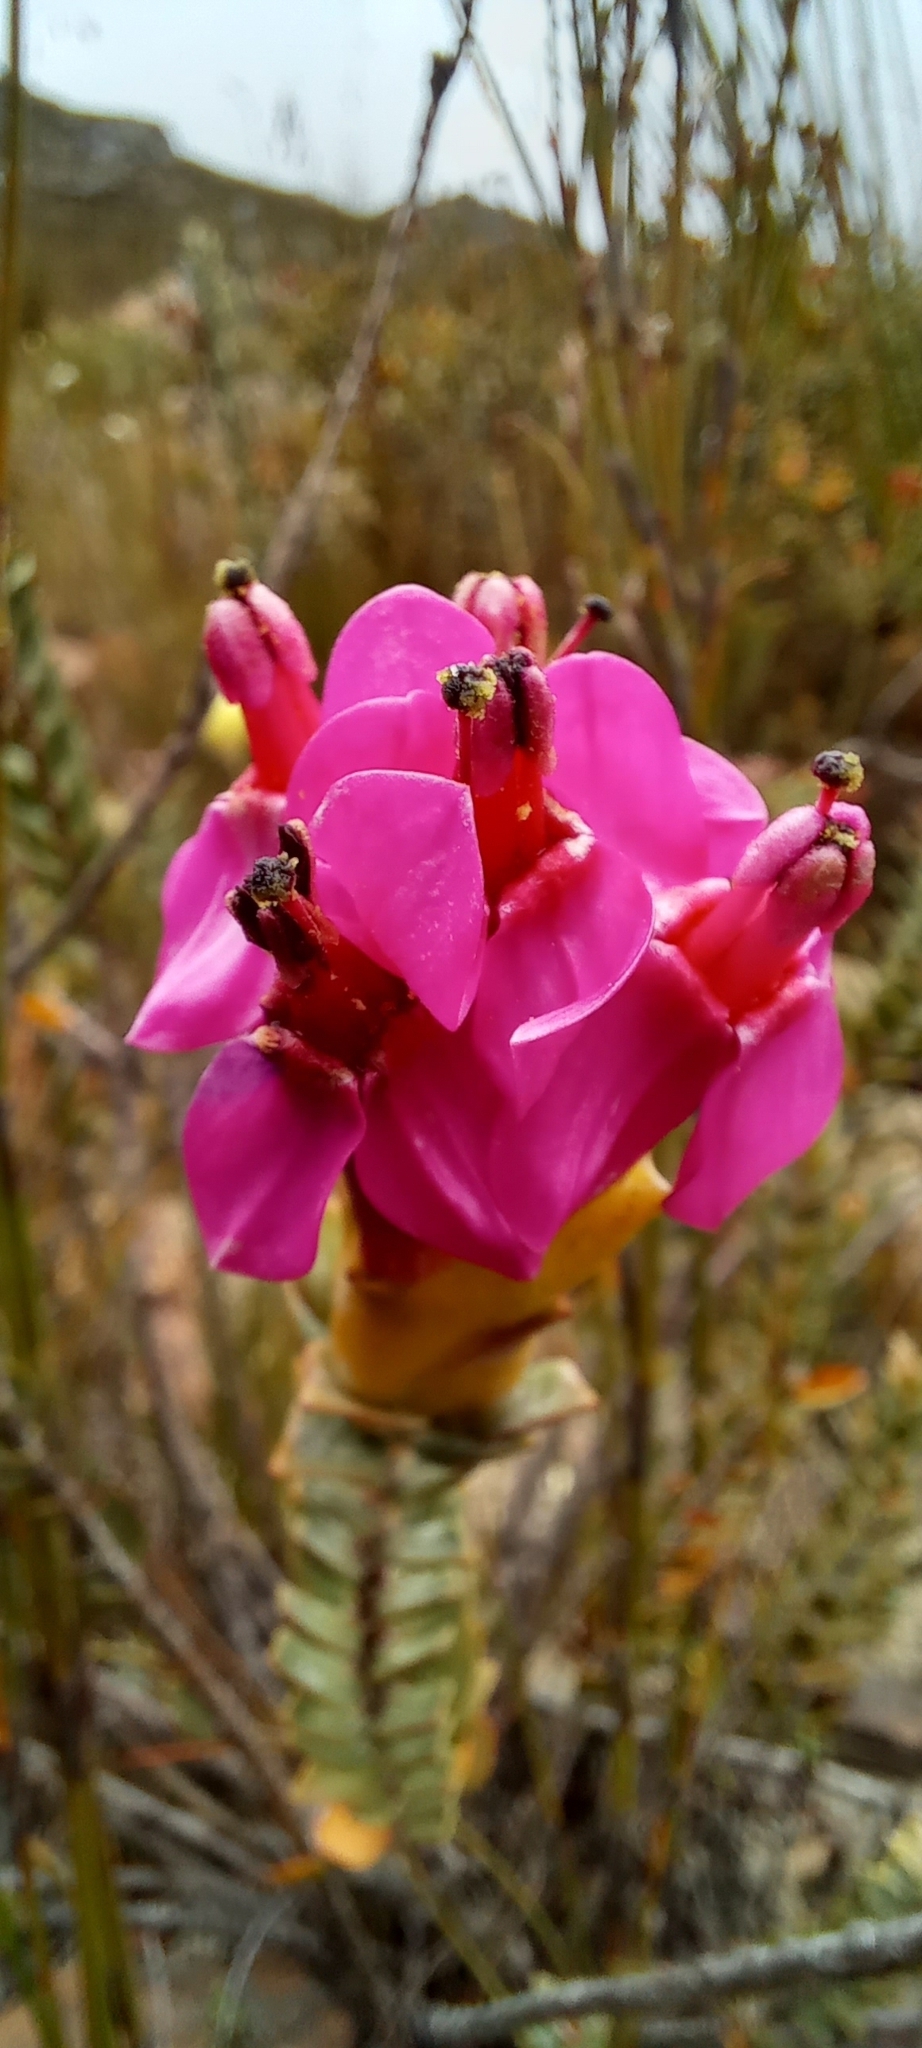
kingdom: Plantae
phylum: Tracheophyta
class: Magnoliopsida
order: Myrtales
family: Penaeaceae
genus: Saltera
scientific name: Saltera sarcocolla
